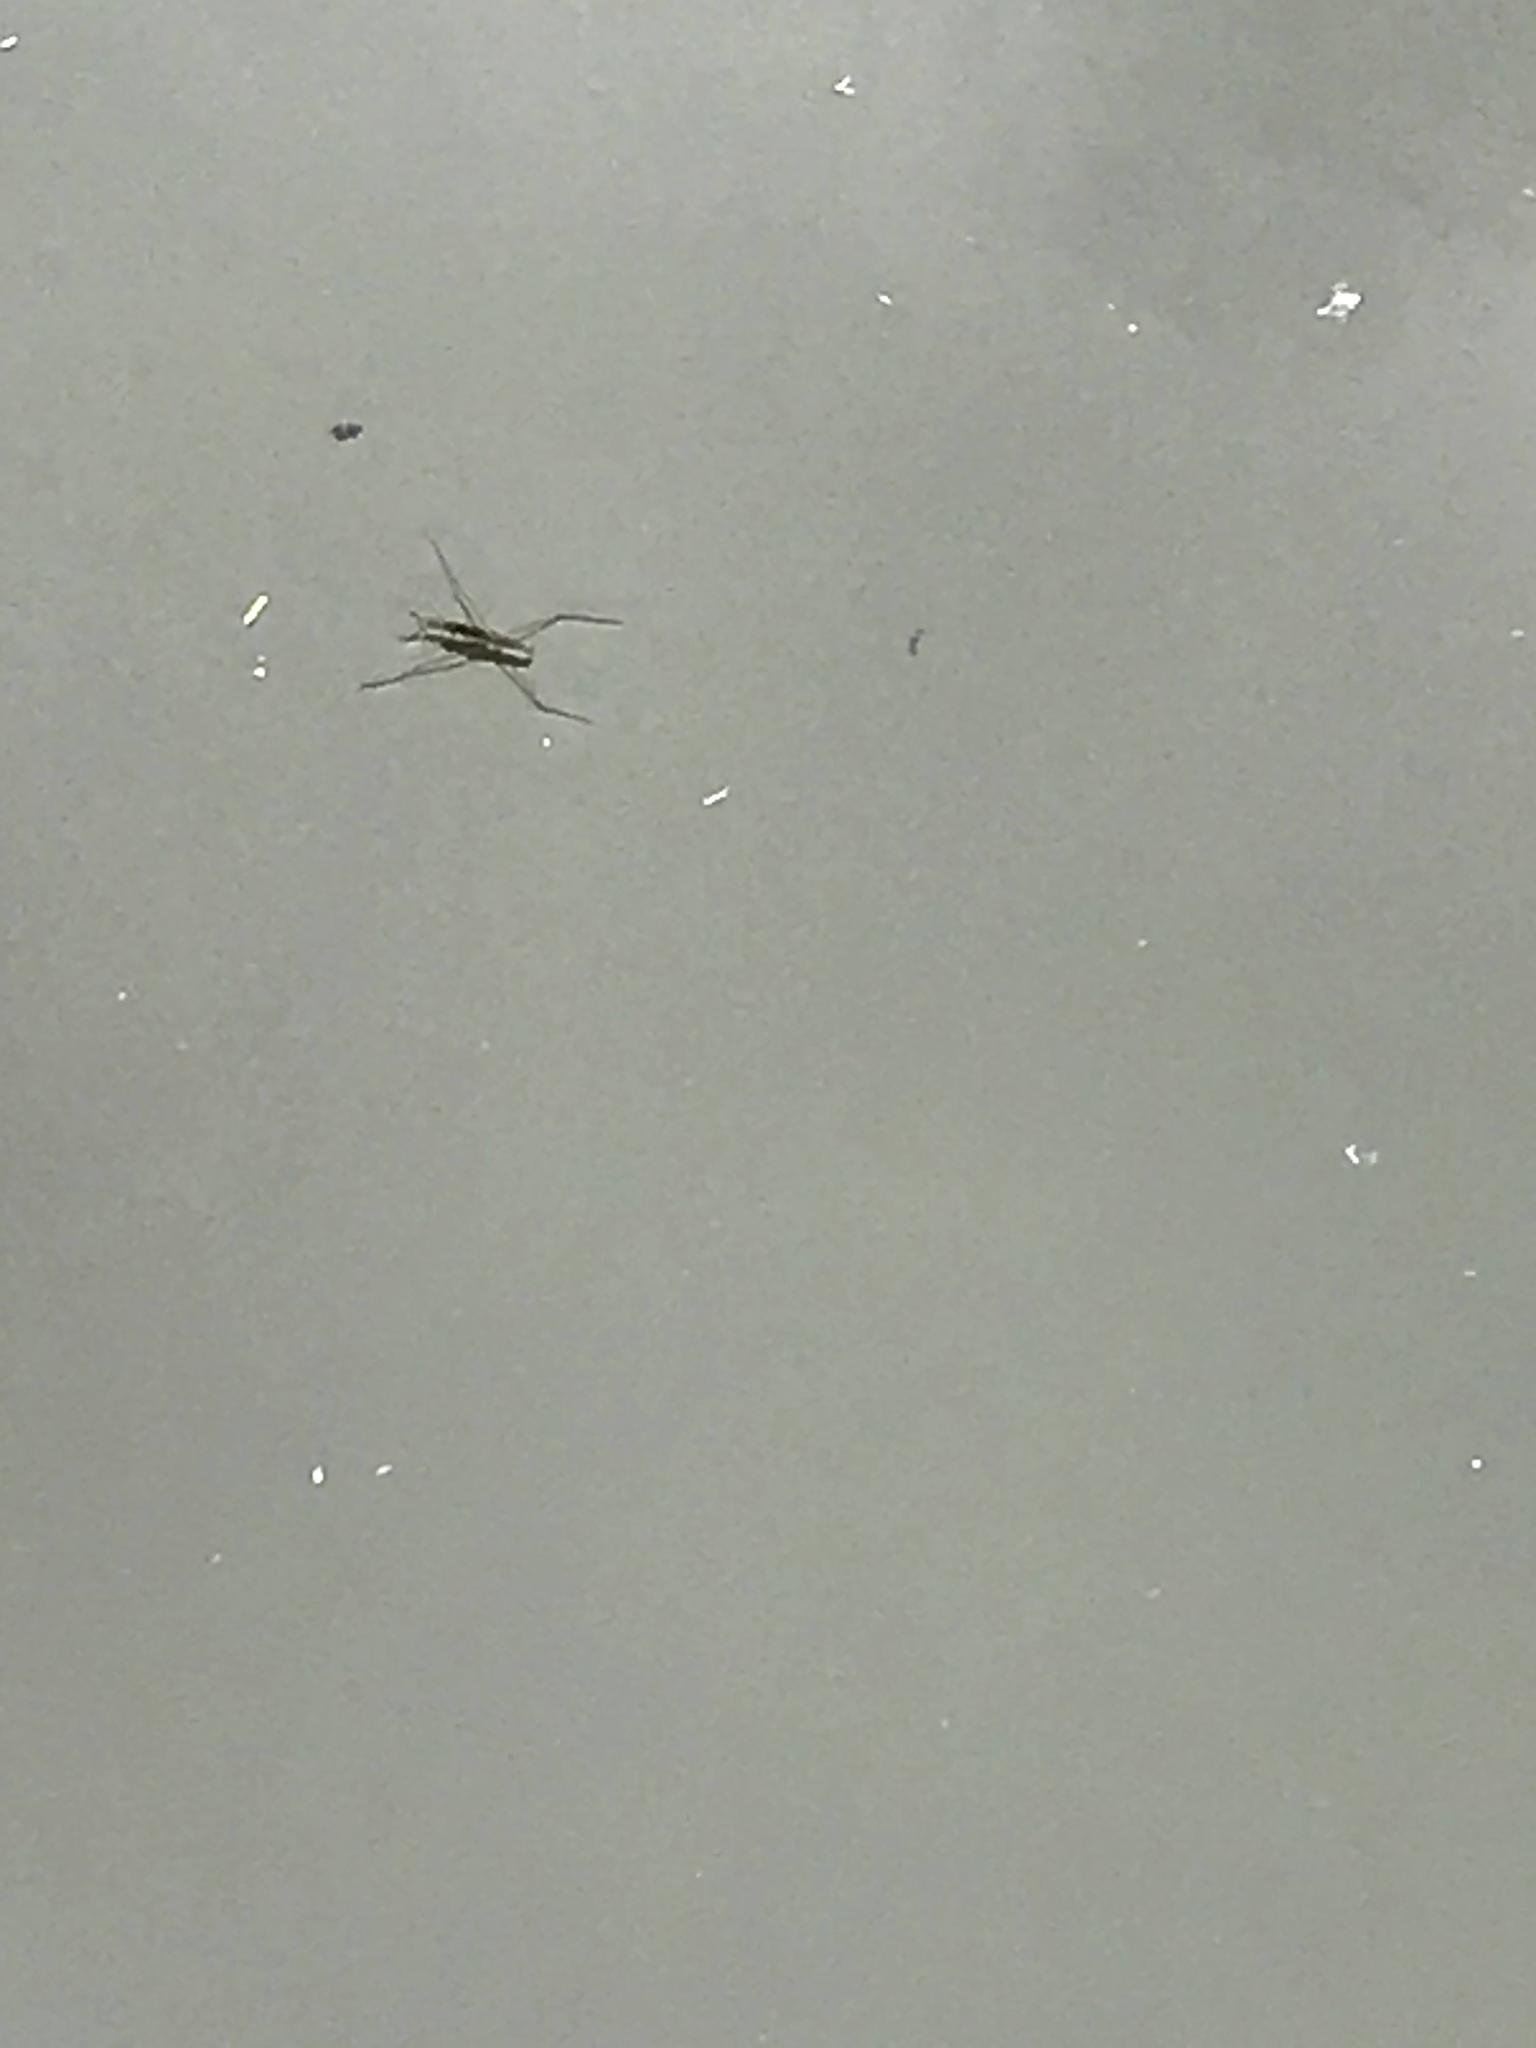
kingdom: Animalia
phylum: Arthropoda
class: Insecta
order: Hemiptera
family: Gerridae
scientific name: Gerridae
